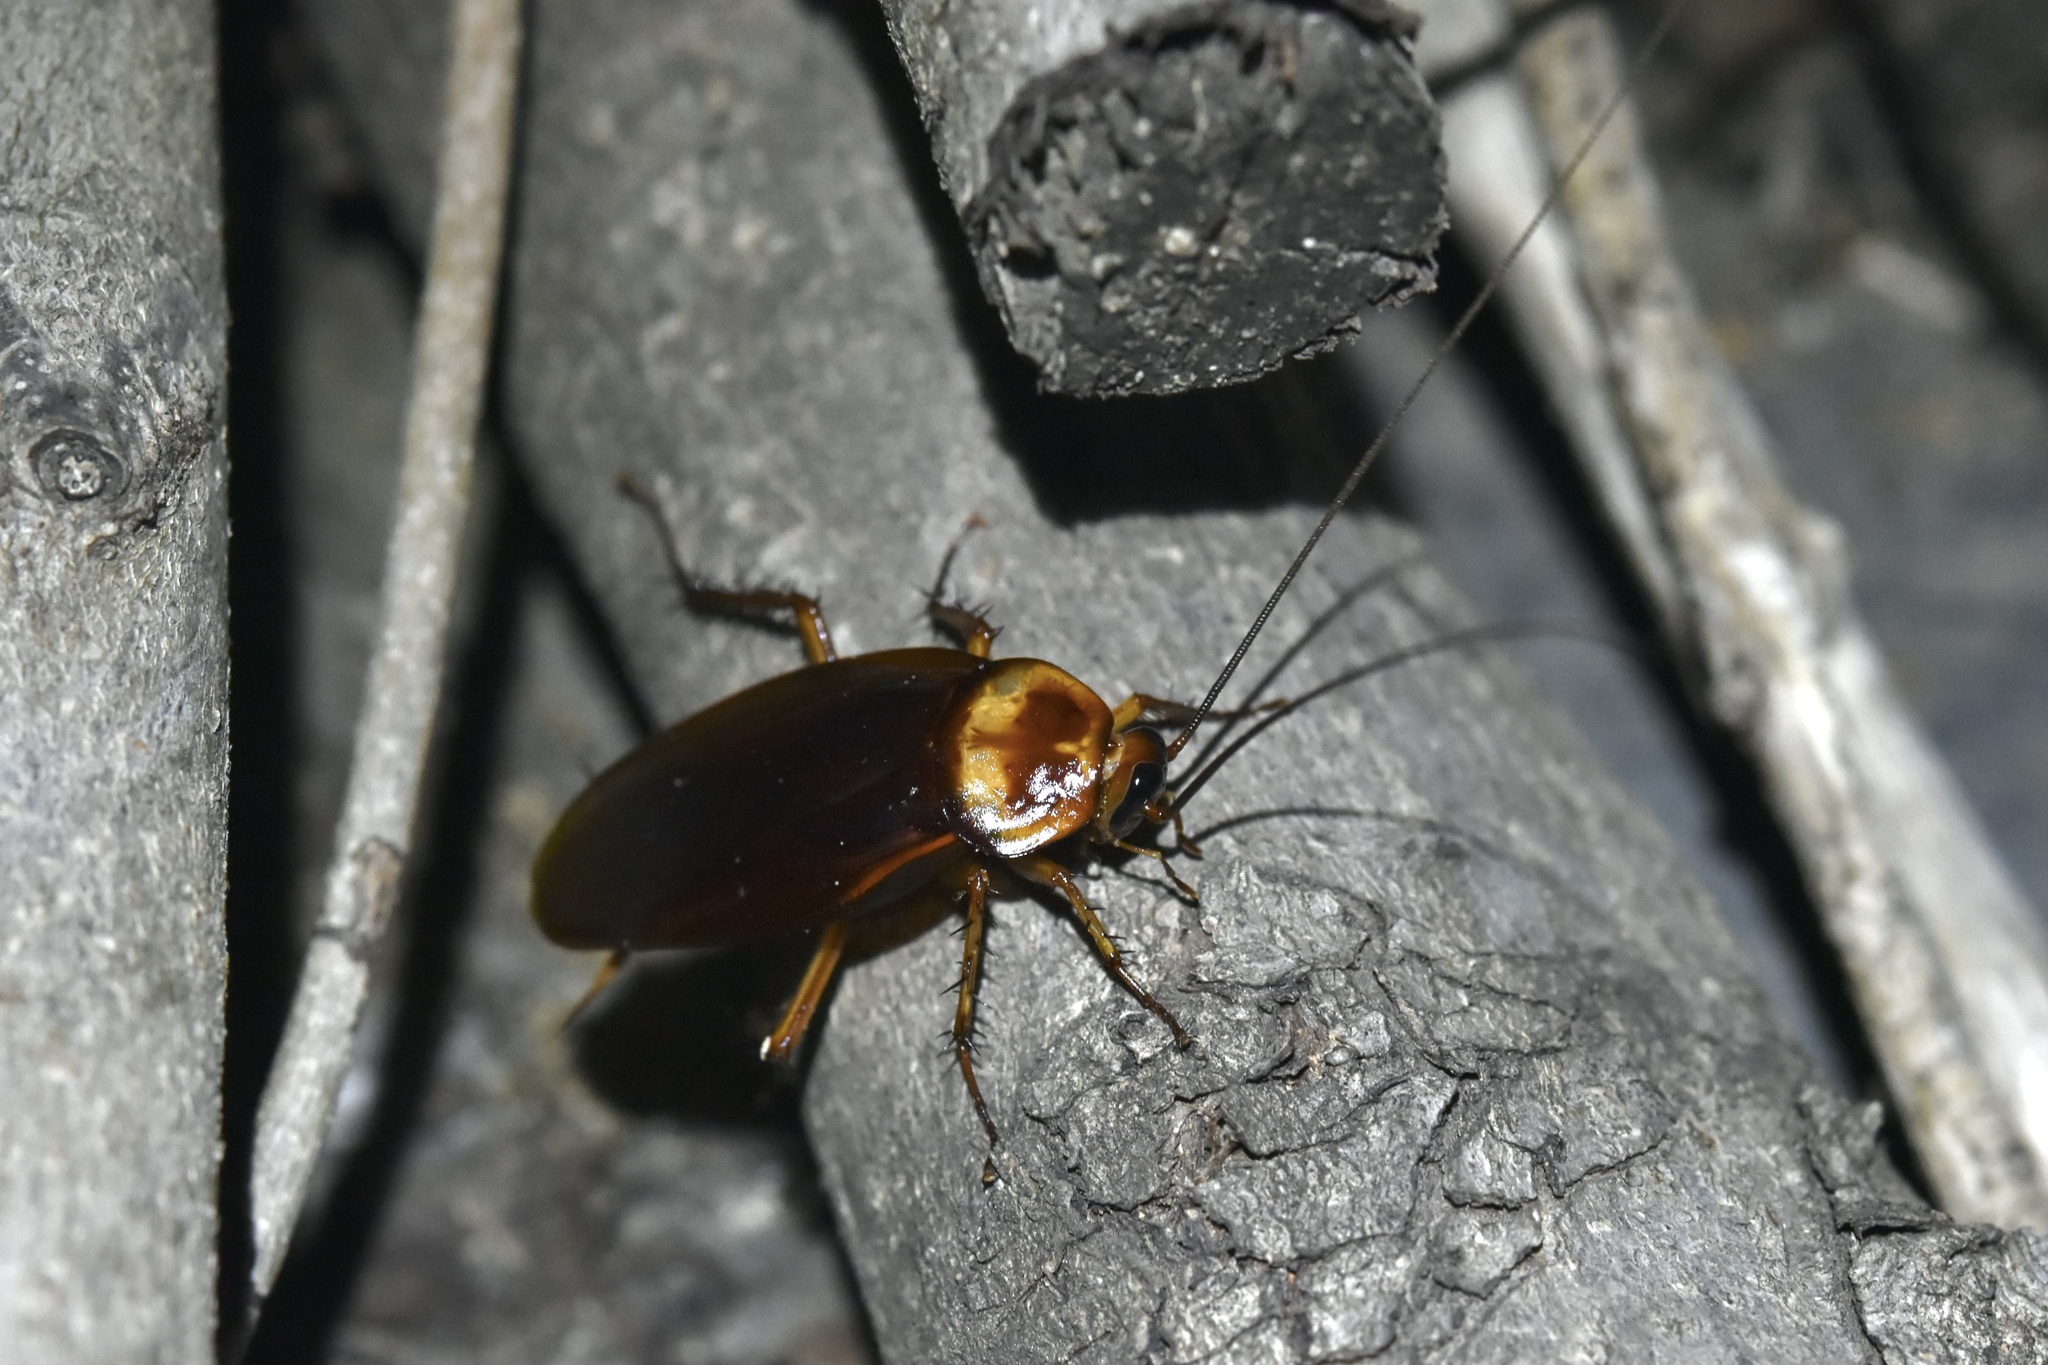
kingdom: Animalia
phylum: Arthropoda
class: Insecta
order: Blattodea
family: Blattidae
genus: Periplaneta
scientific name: Periplaneta americana
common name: American cockroach
